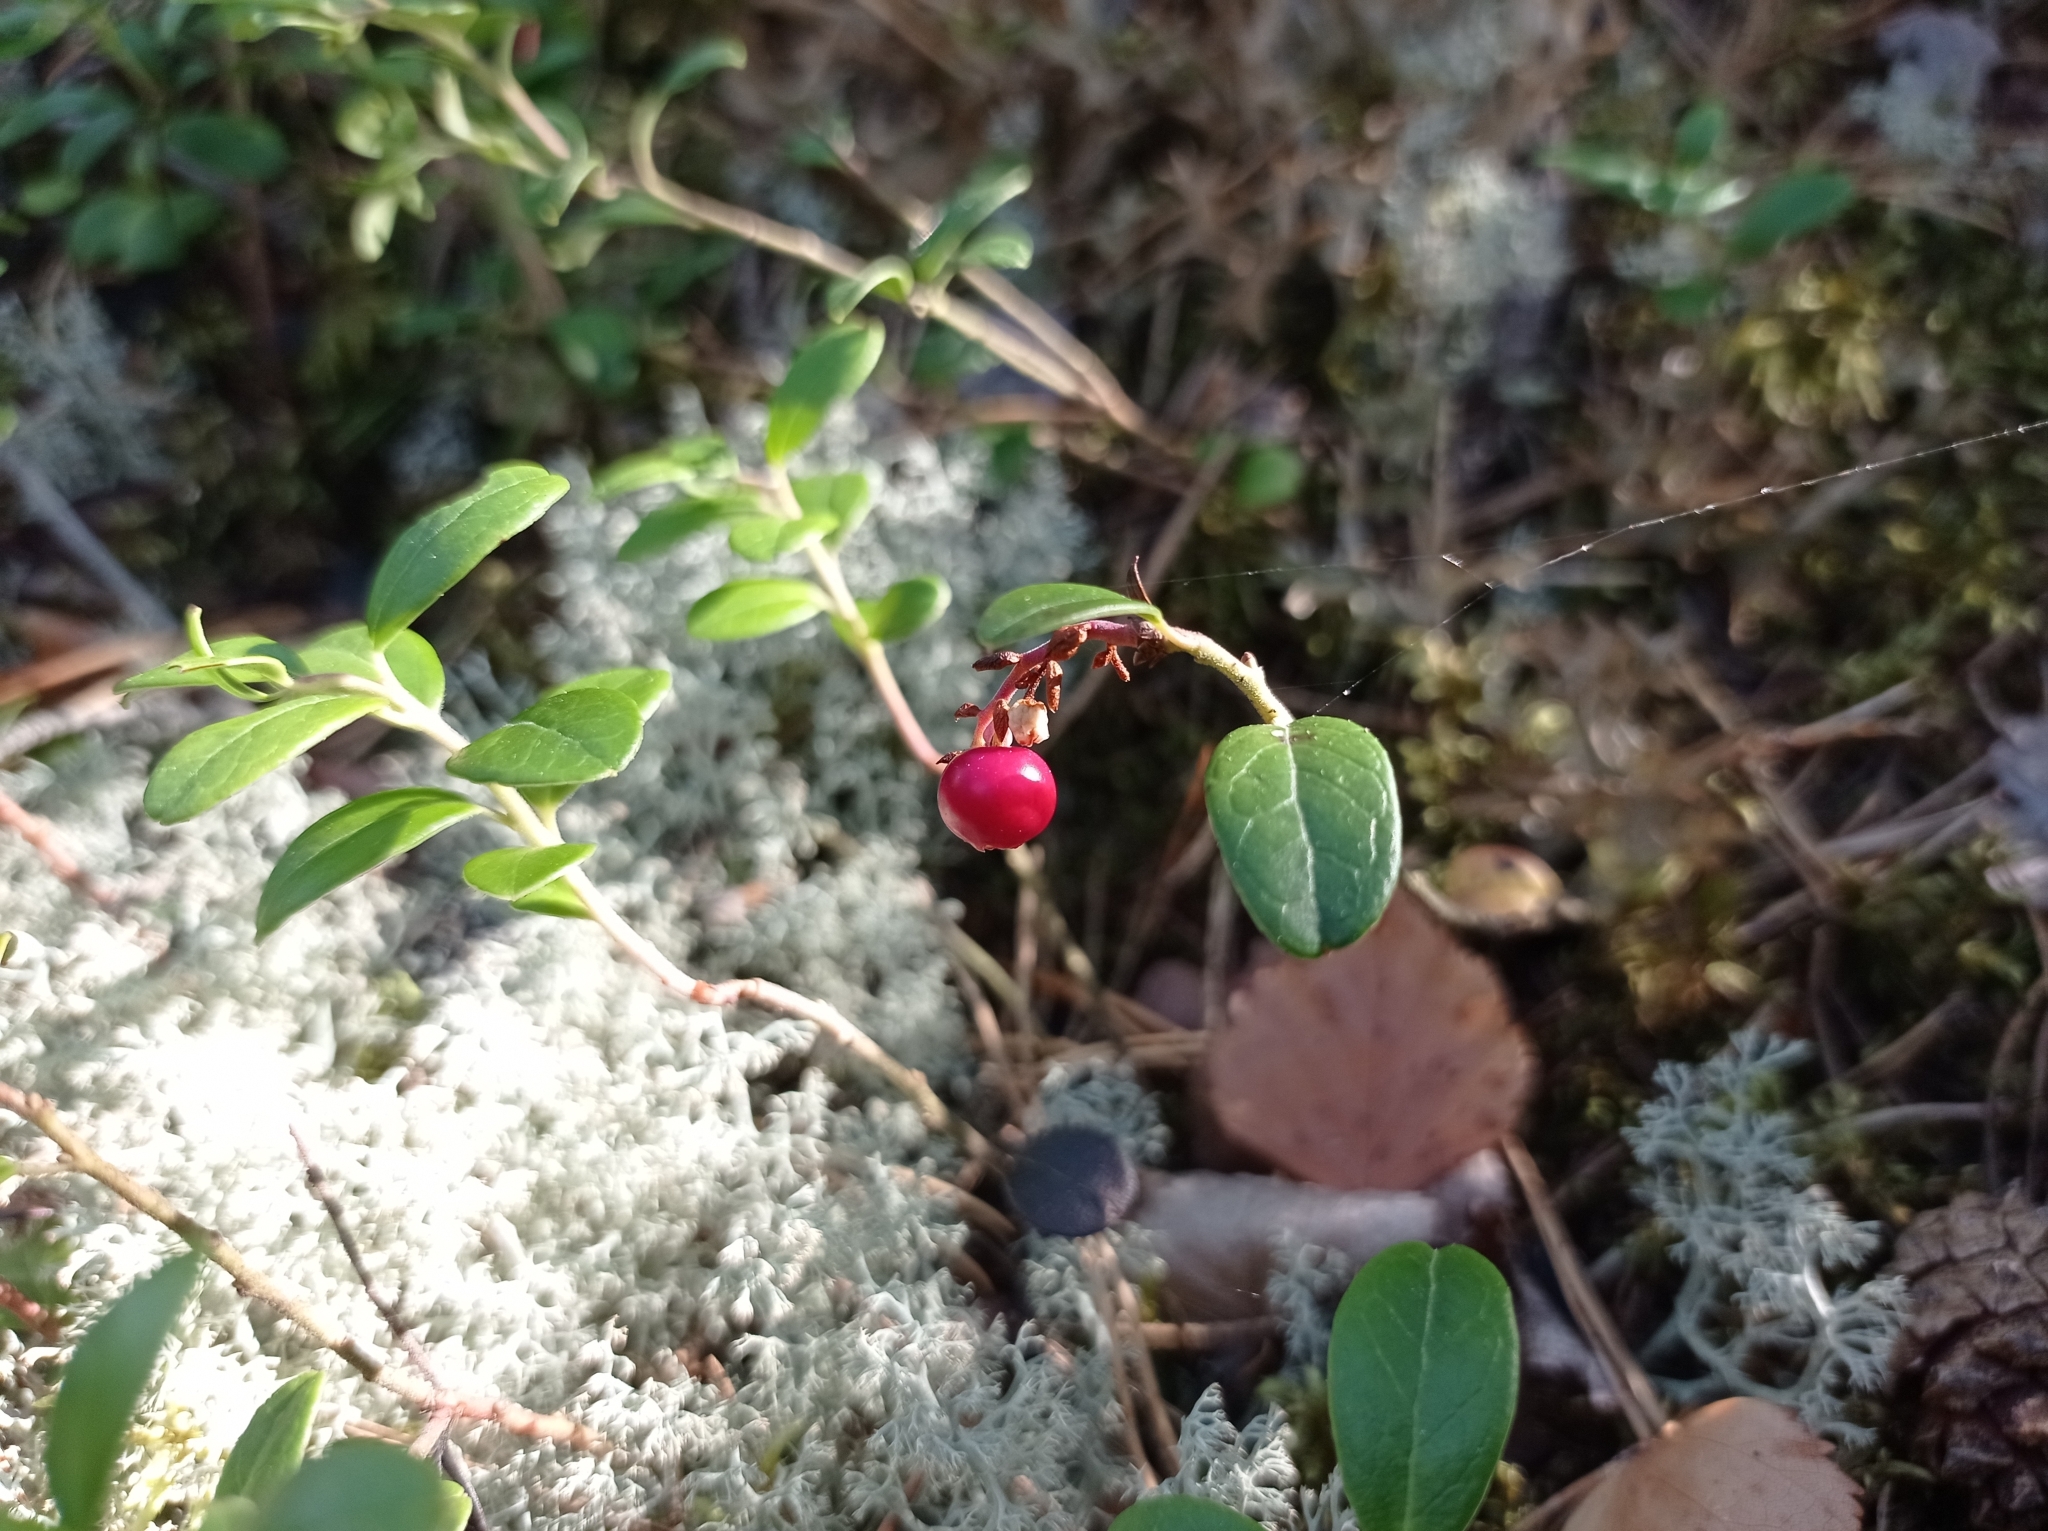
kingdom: Plantae
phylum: Tracheophyta
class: Magnoliopsida
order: Ericales
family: Ericaceae
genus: Vaccinium
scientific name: Vaccinium vitis-idaea
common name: Cowberry
